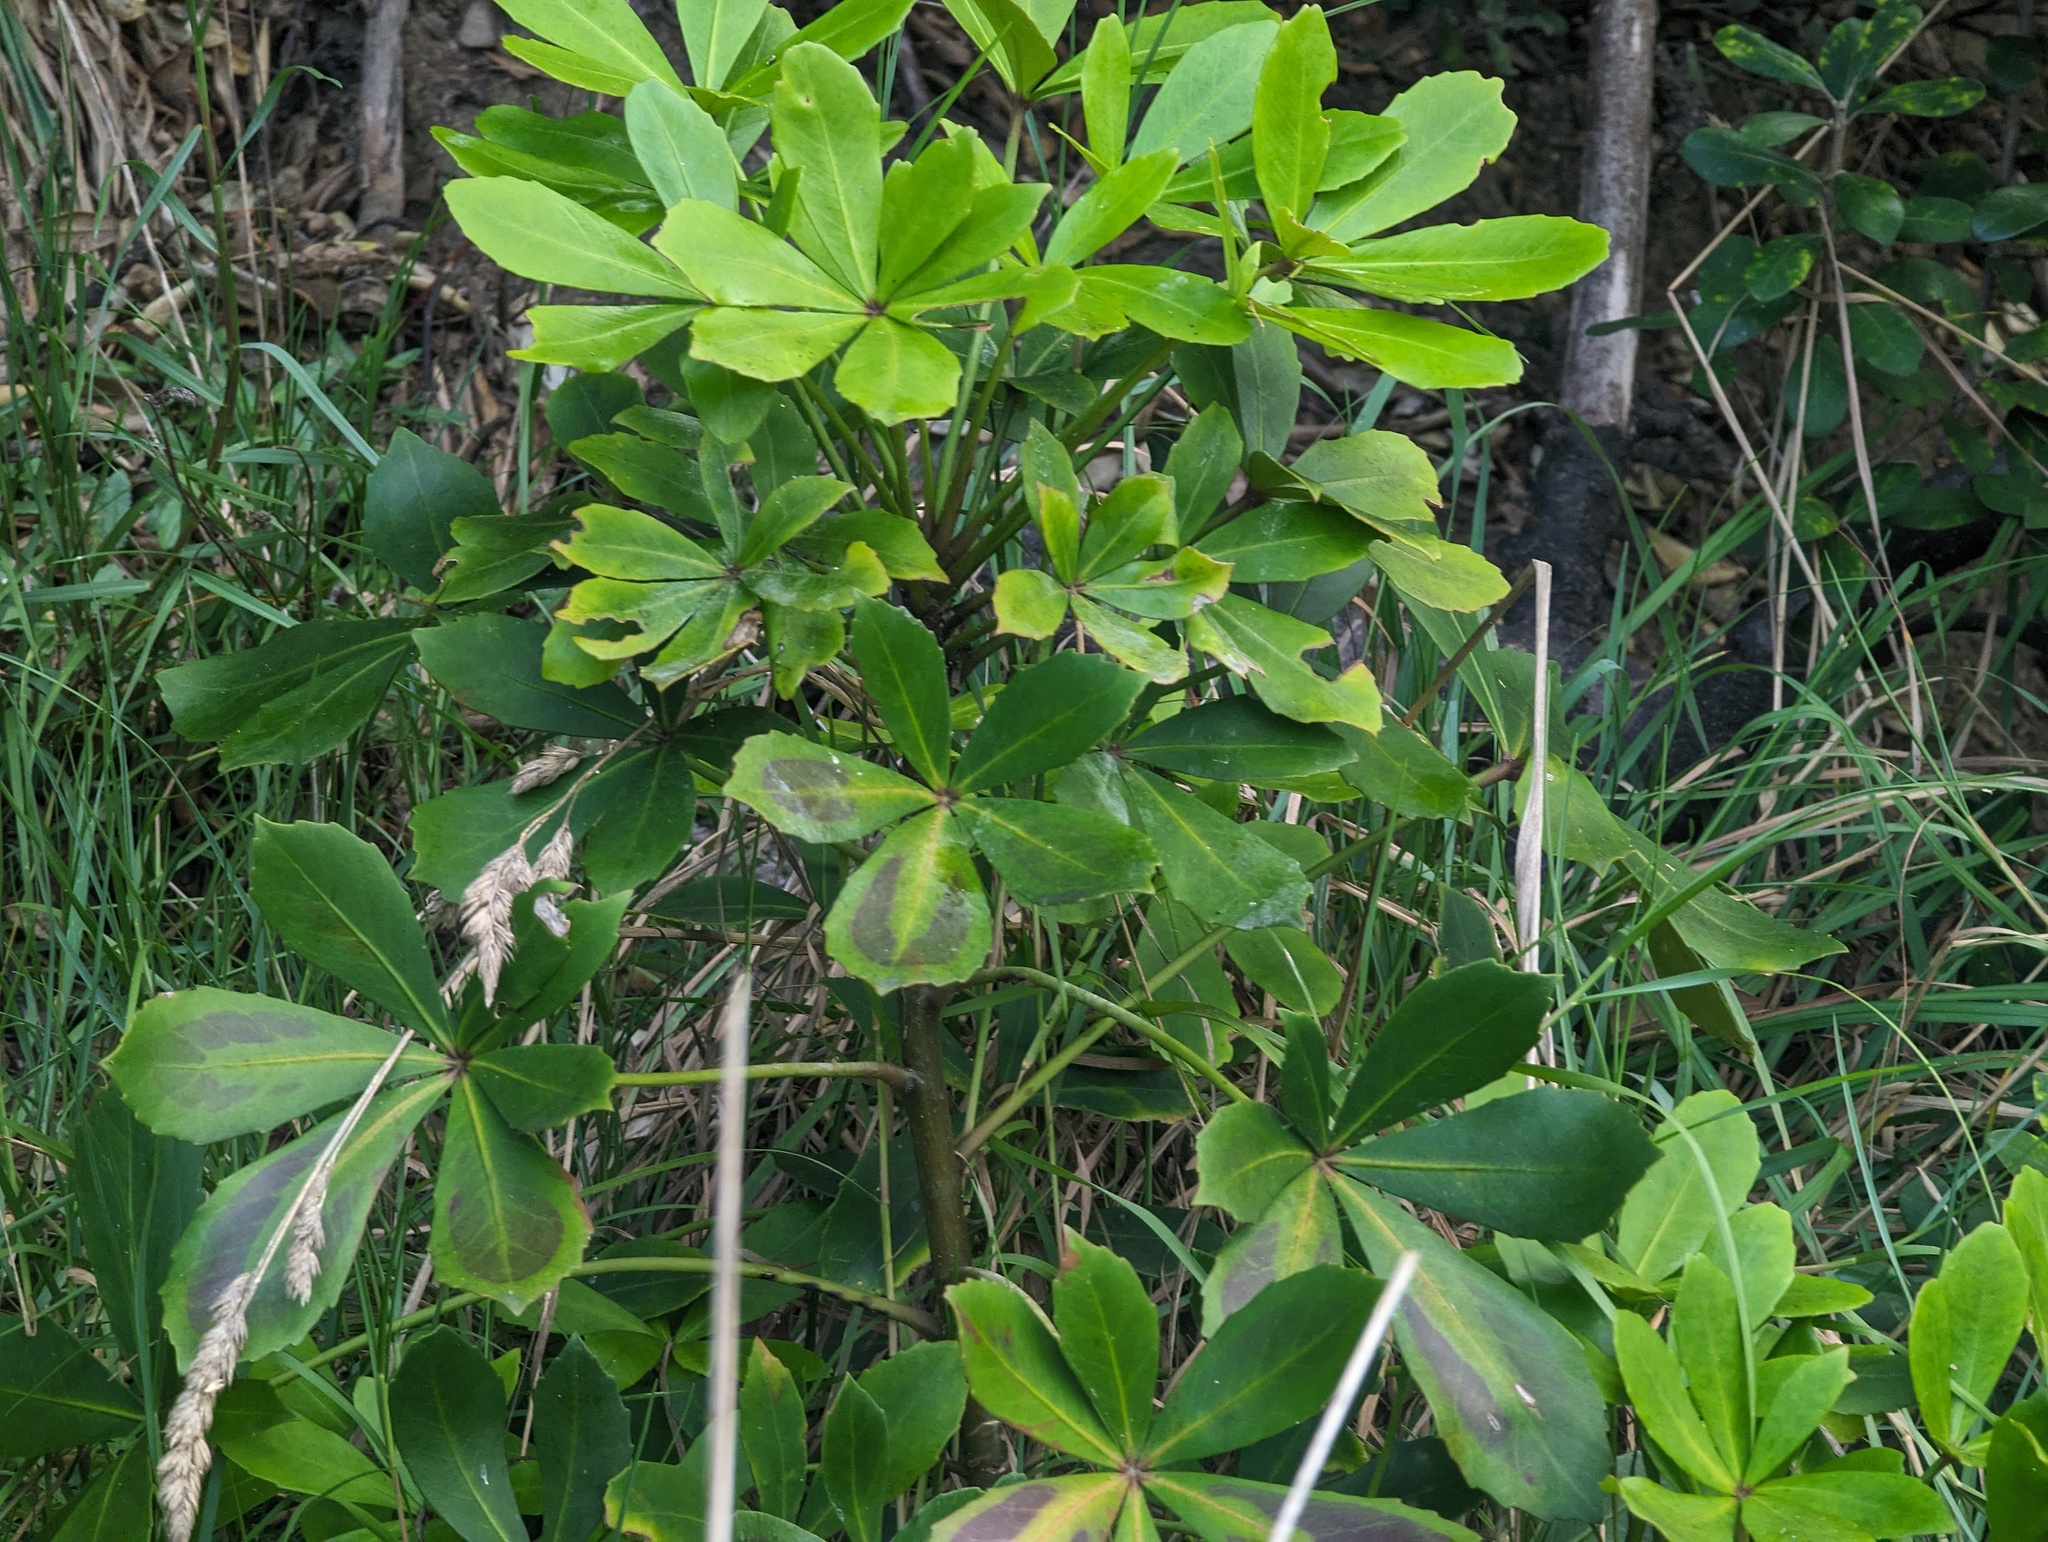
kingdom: Plantae
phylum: Tracheophyta
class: Magnoliopsida
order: Apiales
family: Araliaceae
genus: Pseudopanax
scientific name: Pseudopanax lessonii
